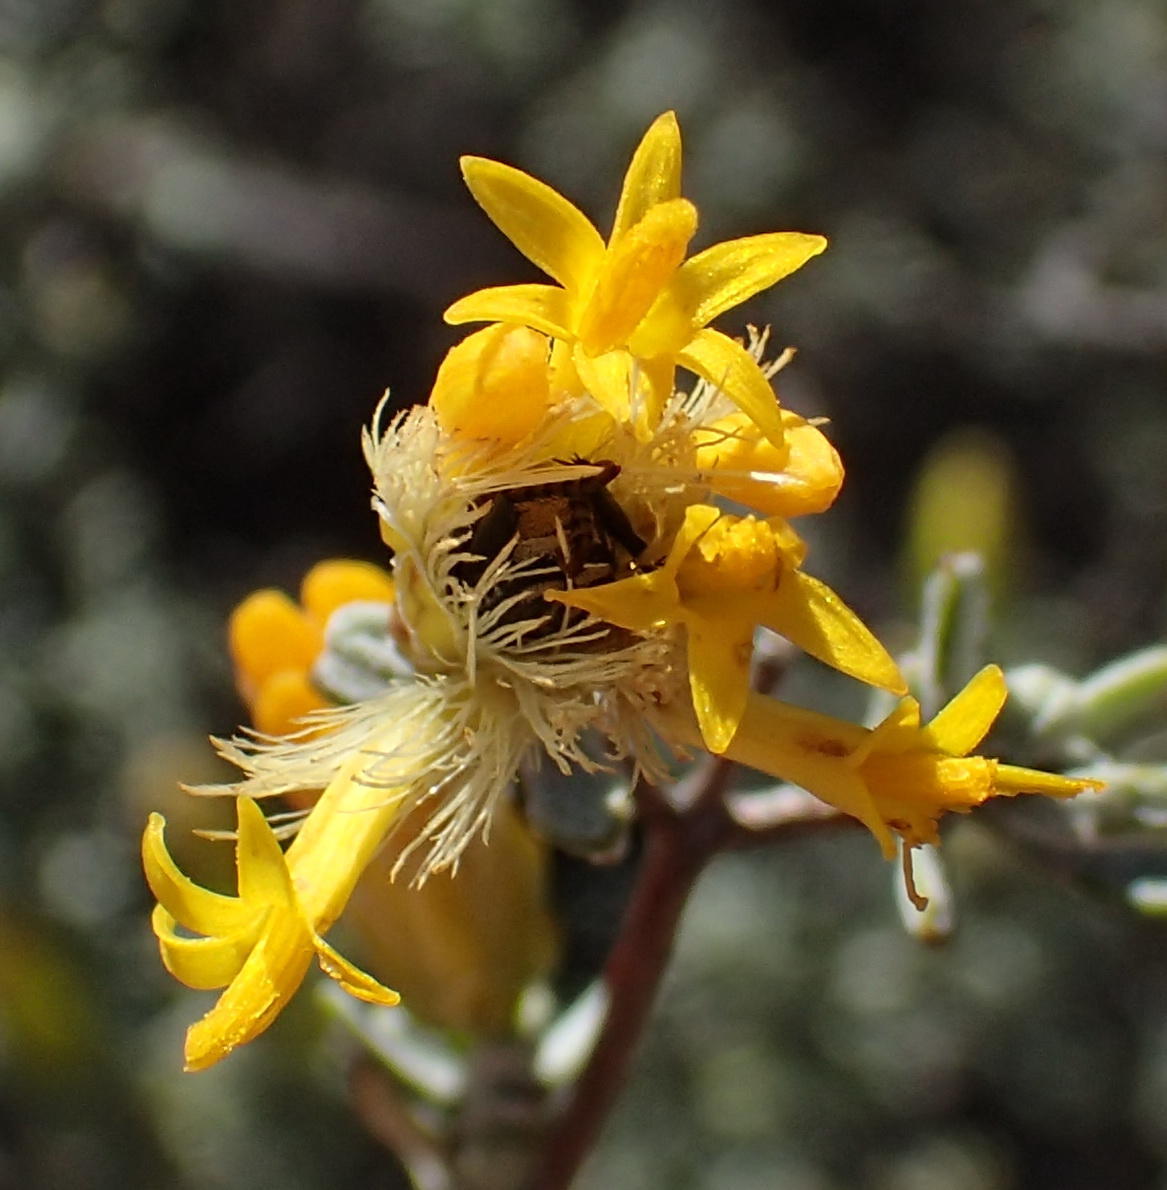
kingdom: Plantae
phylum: Tracheophyta
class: Magnoliopsida
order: Asterales
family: Asteraceae
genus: Pteronia
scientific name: Pteronia incana
